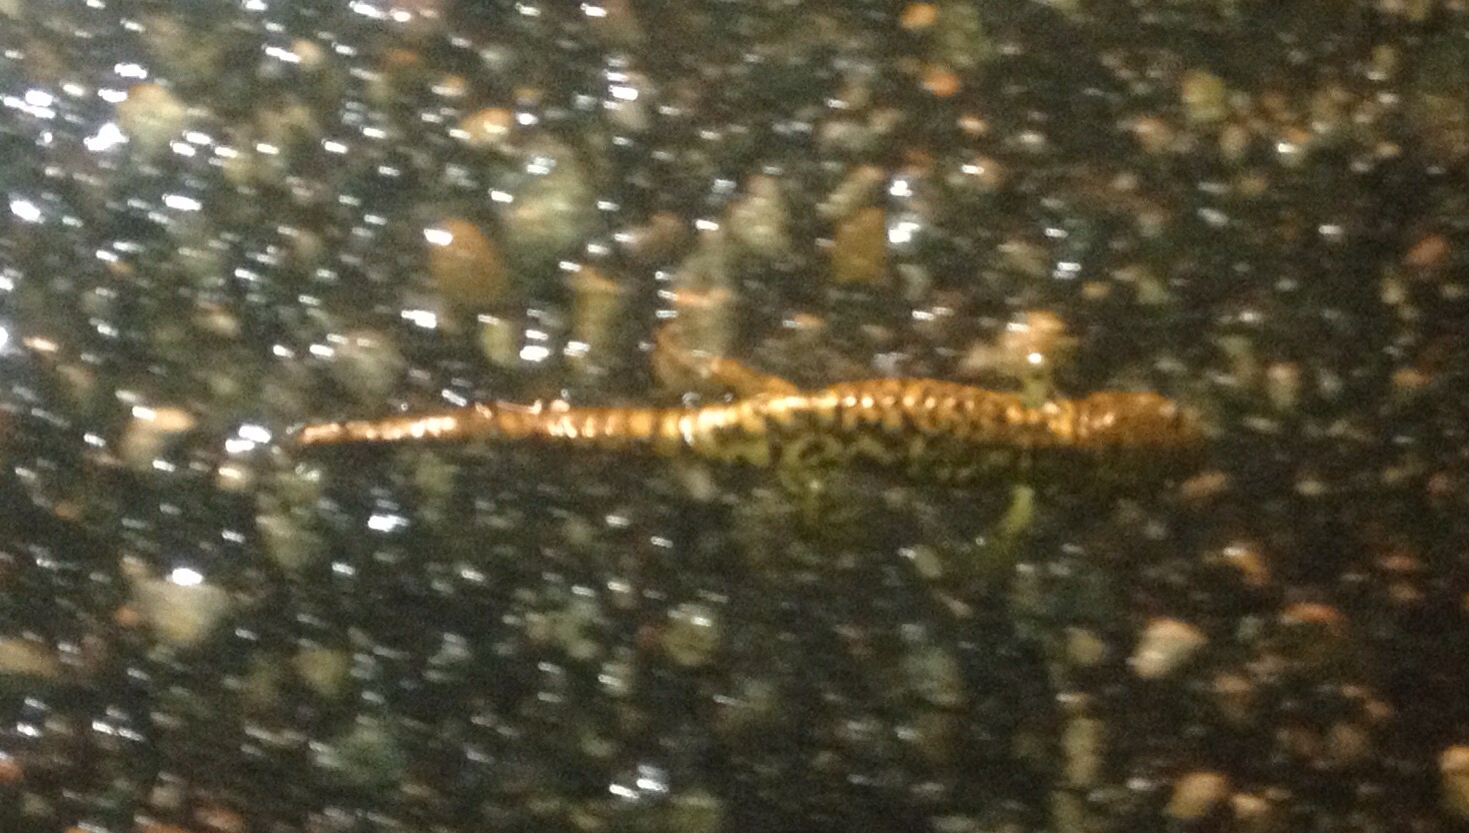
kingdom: Animalia
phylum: Chordata
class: Amphibia
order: Caudata
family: Ambystomatidae
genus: Ambystoma
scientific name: Ambystoma mavortium
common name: Western tiger salamander
